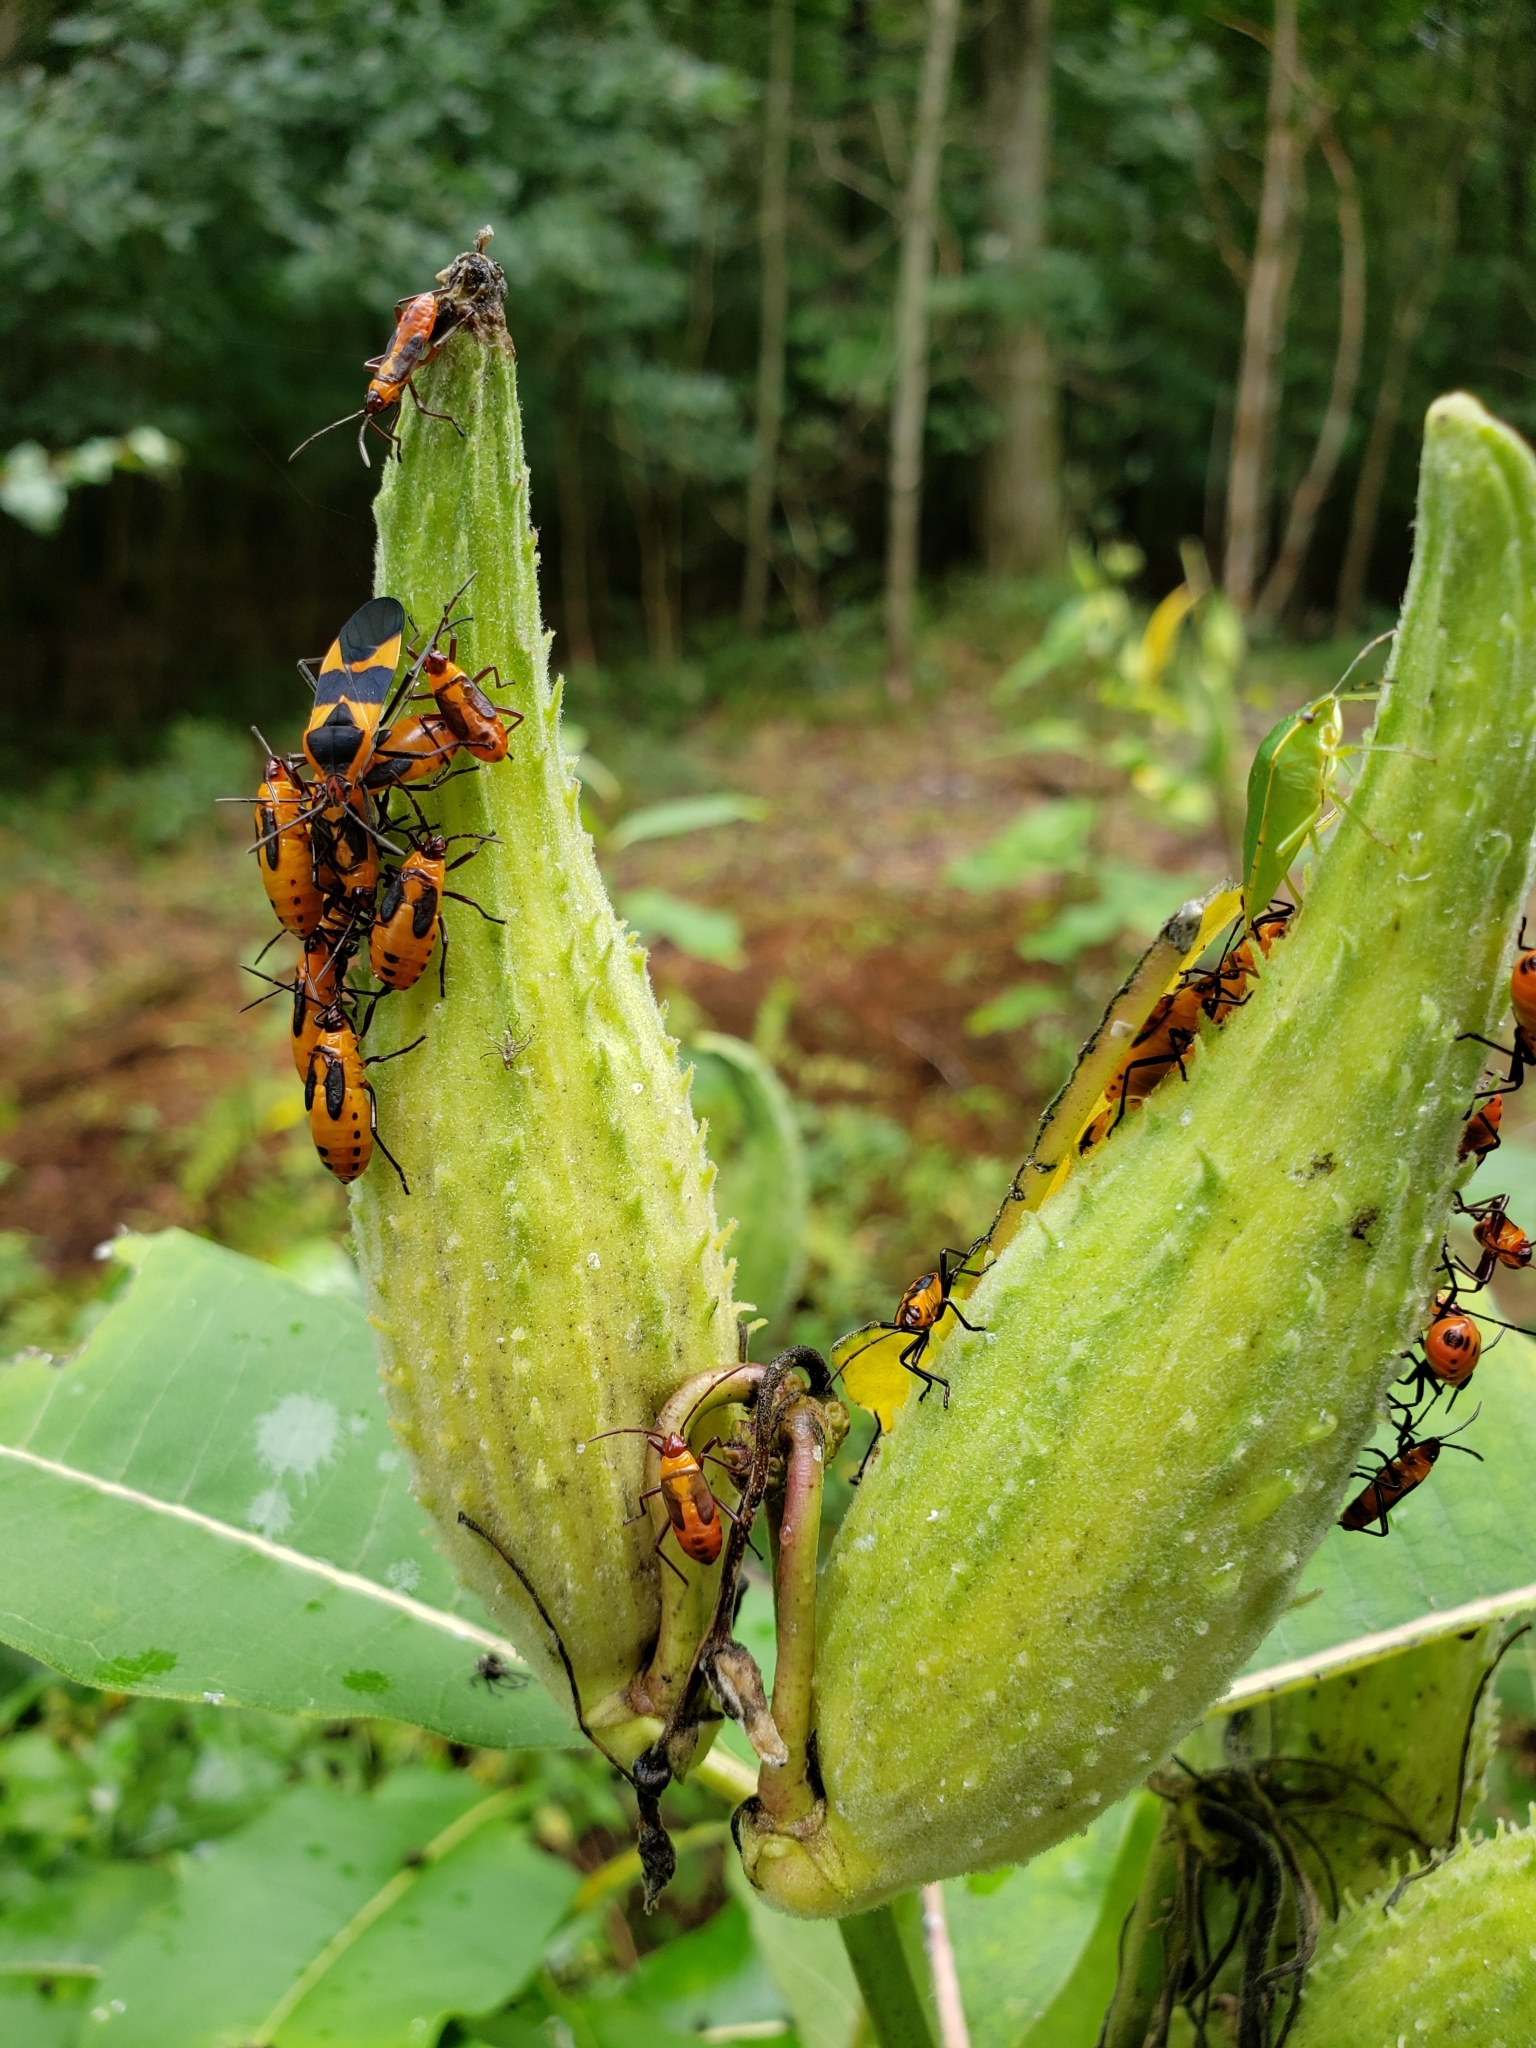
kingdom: Animalia
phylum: Arthropoda
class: Insecta
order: Hemiptera
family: Lygaeidae
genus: Oncopeltus
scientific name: Oncopeltus fasciatus
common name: Large milkweed bug
